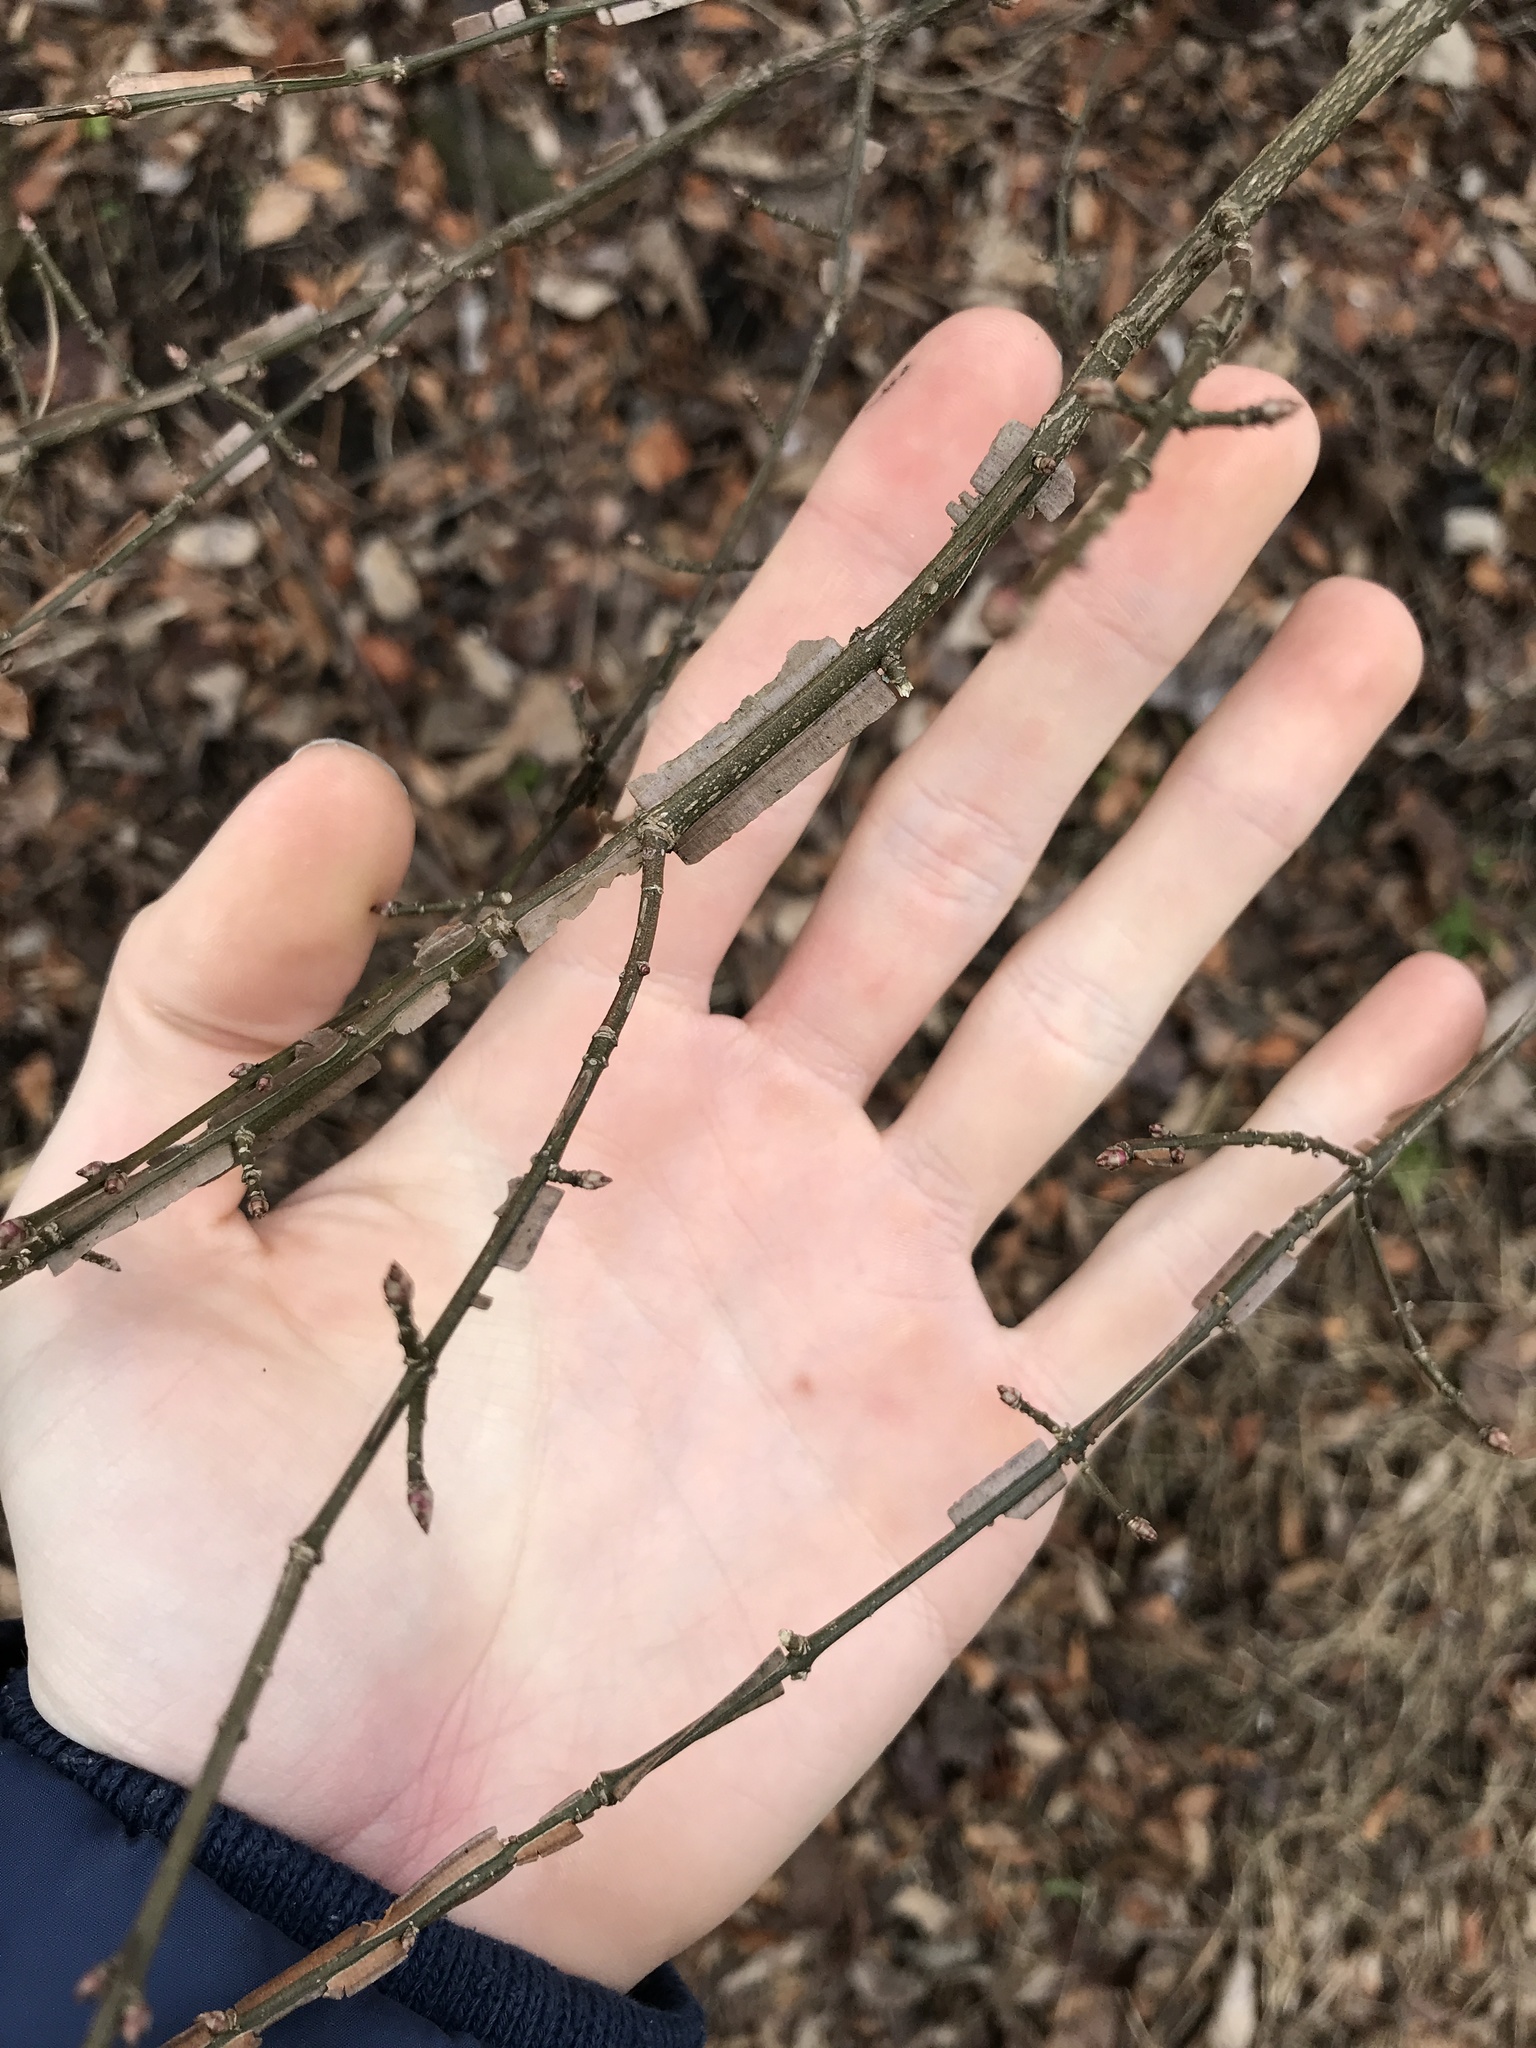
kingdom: Plantae
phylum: Tracheophyta
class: Magnoliopsida
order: Celastrales
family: Celastraceae
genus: Euonymus
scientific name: Euonymus alatus
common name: Winged euonymus
